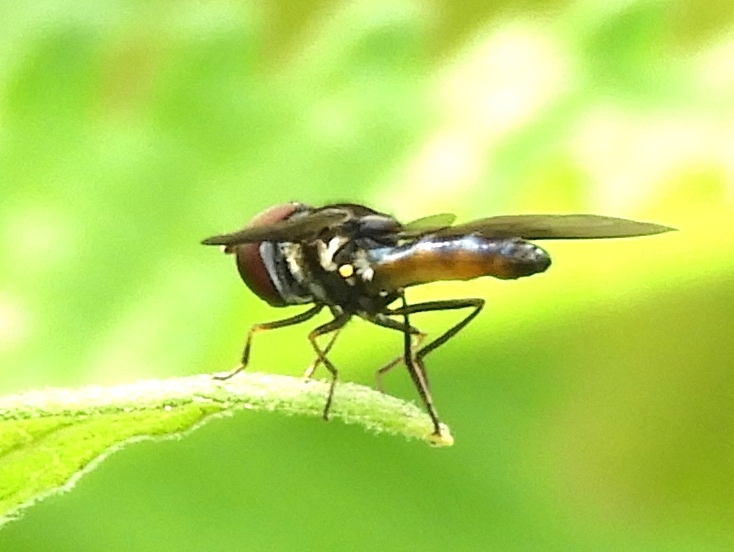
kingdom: Animalia
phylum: Arthropoda
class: Insecta
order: Diptera
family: Syrphidae
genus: Ocyptamus
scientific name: Ocyptamus
